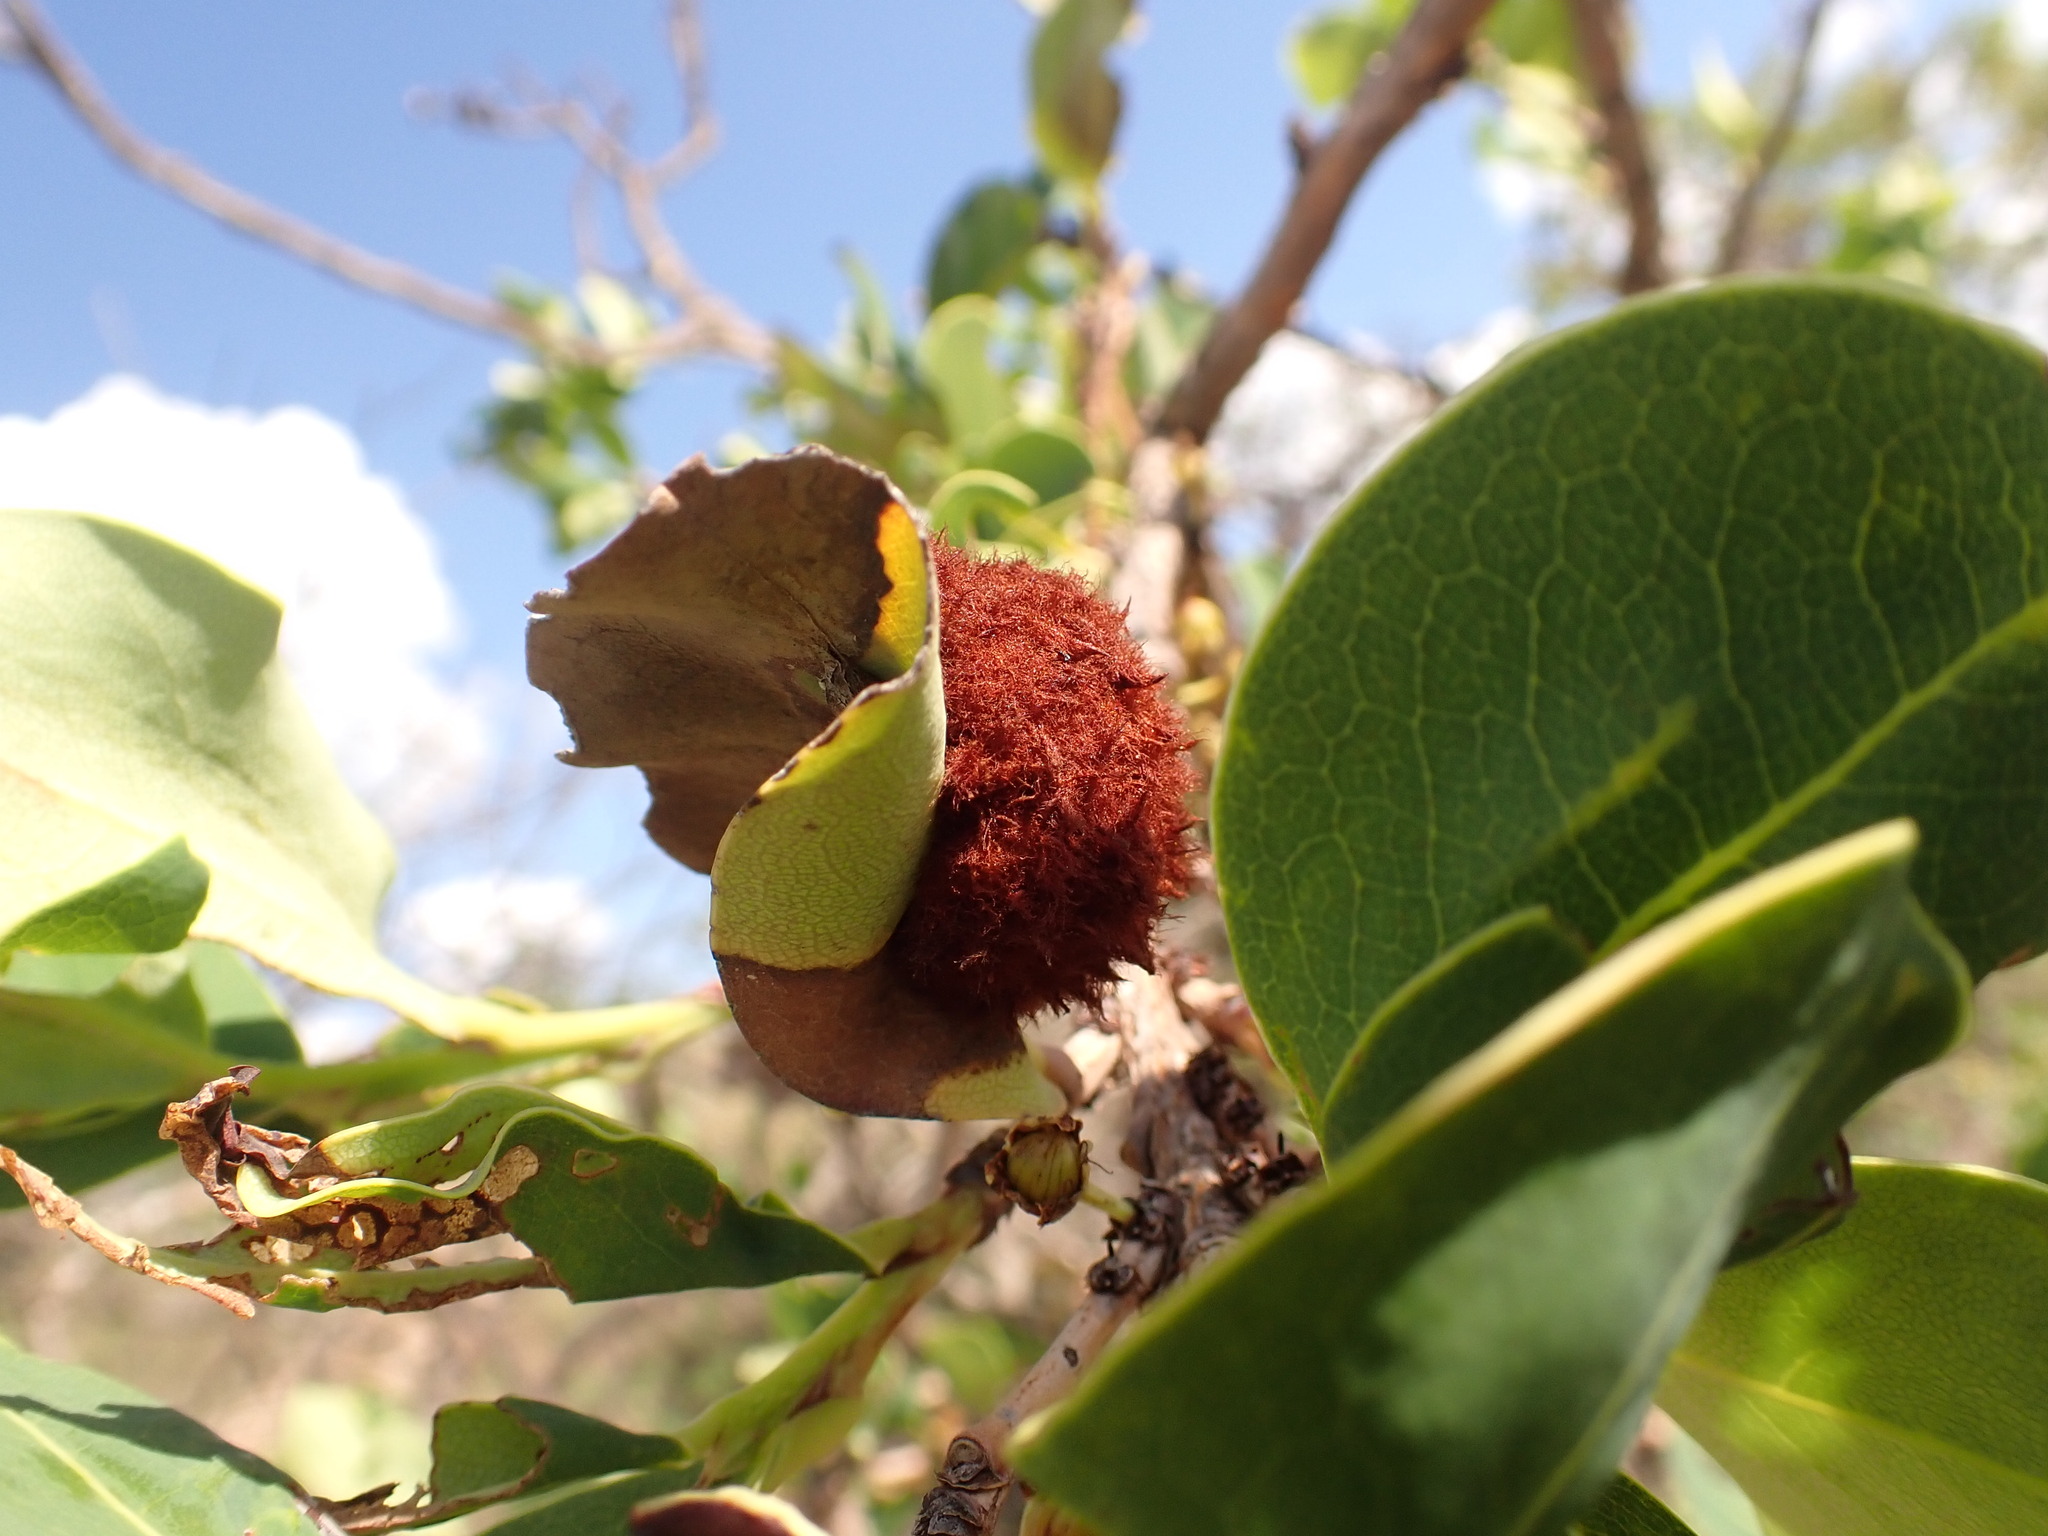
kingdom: Animalia
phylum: Arthropoda
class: Insecta
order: Diptera
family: Cecidomyiidae
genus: Myrciariamyia
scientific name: Myrciariamyia admirabilis
